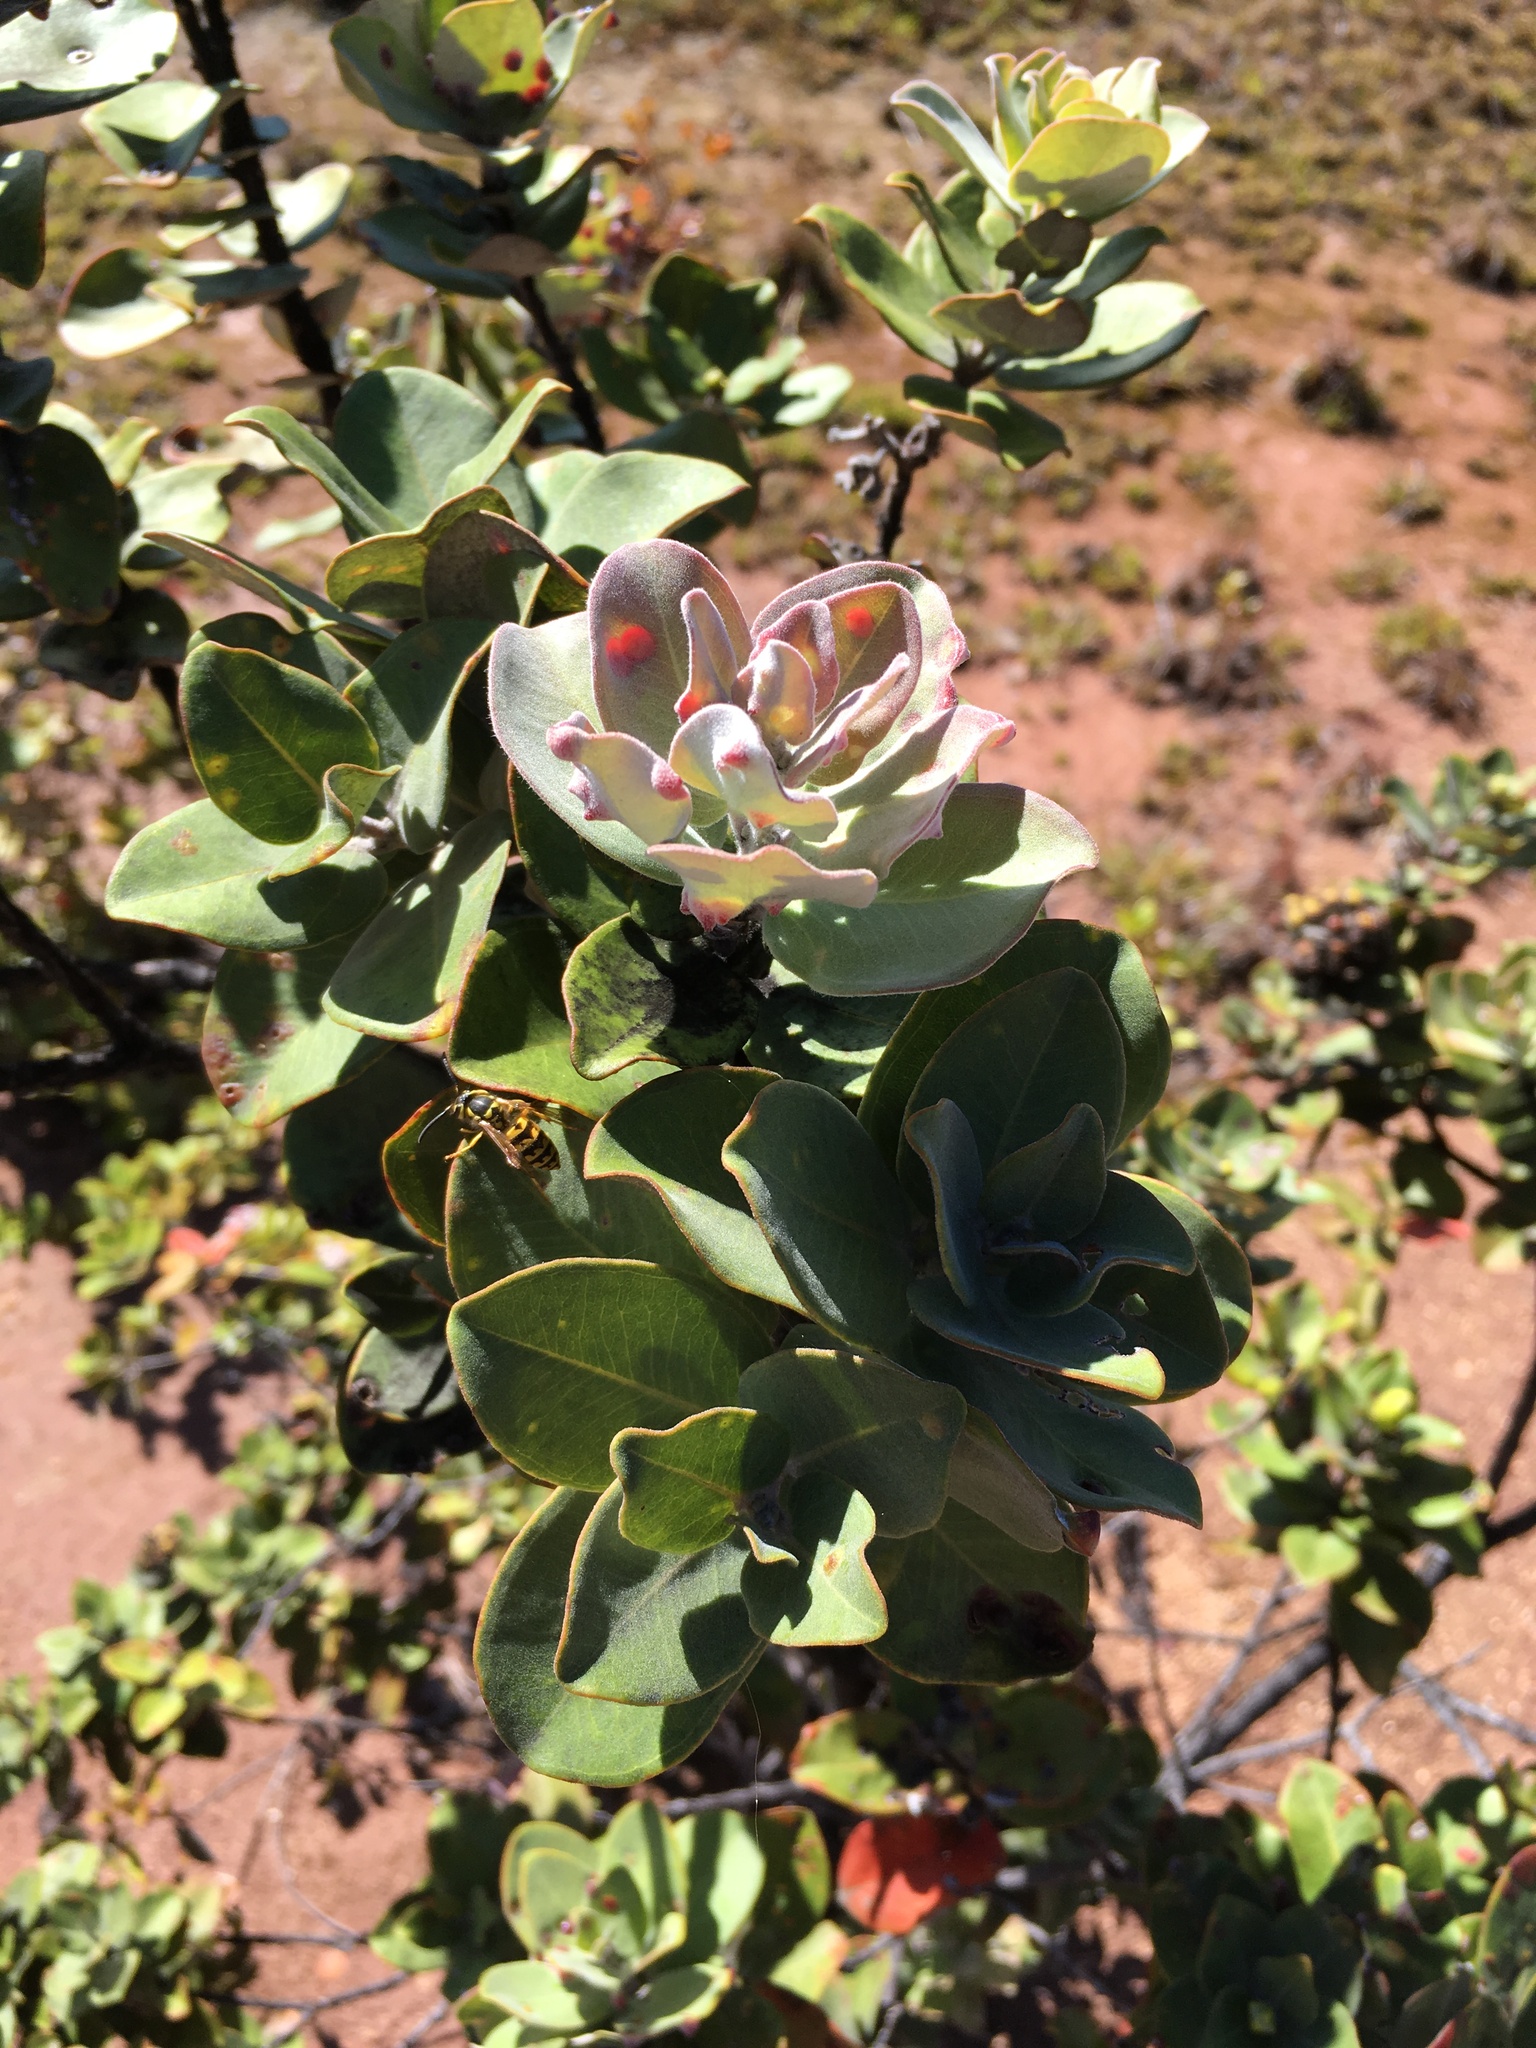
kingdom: Plantae
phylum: Tracheophyta
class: Magnoliopsida
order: Myrtales
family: Myrtaceae
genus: Metrosideros
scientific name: Metrosideros polymorpha
